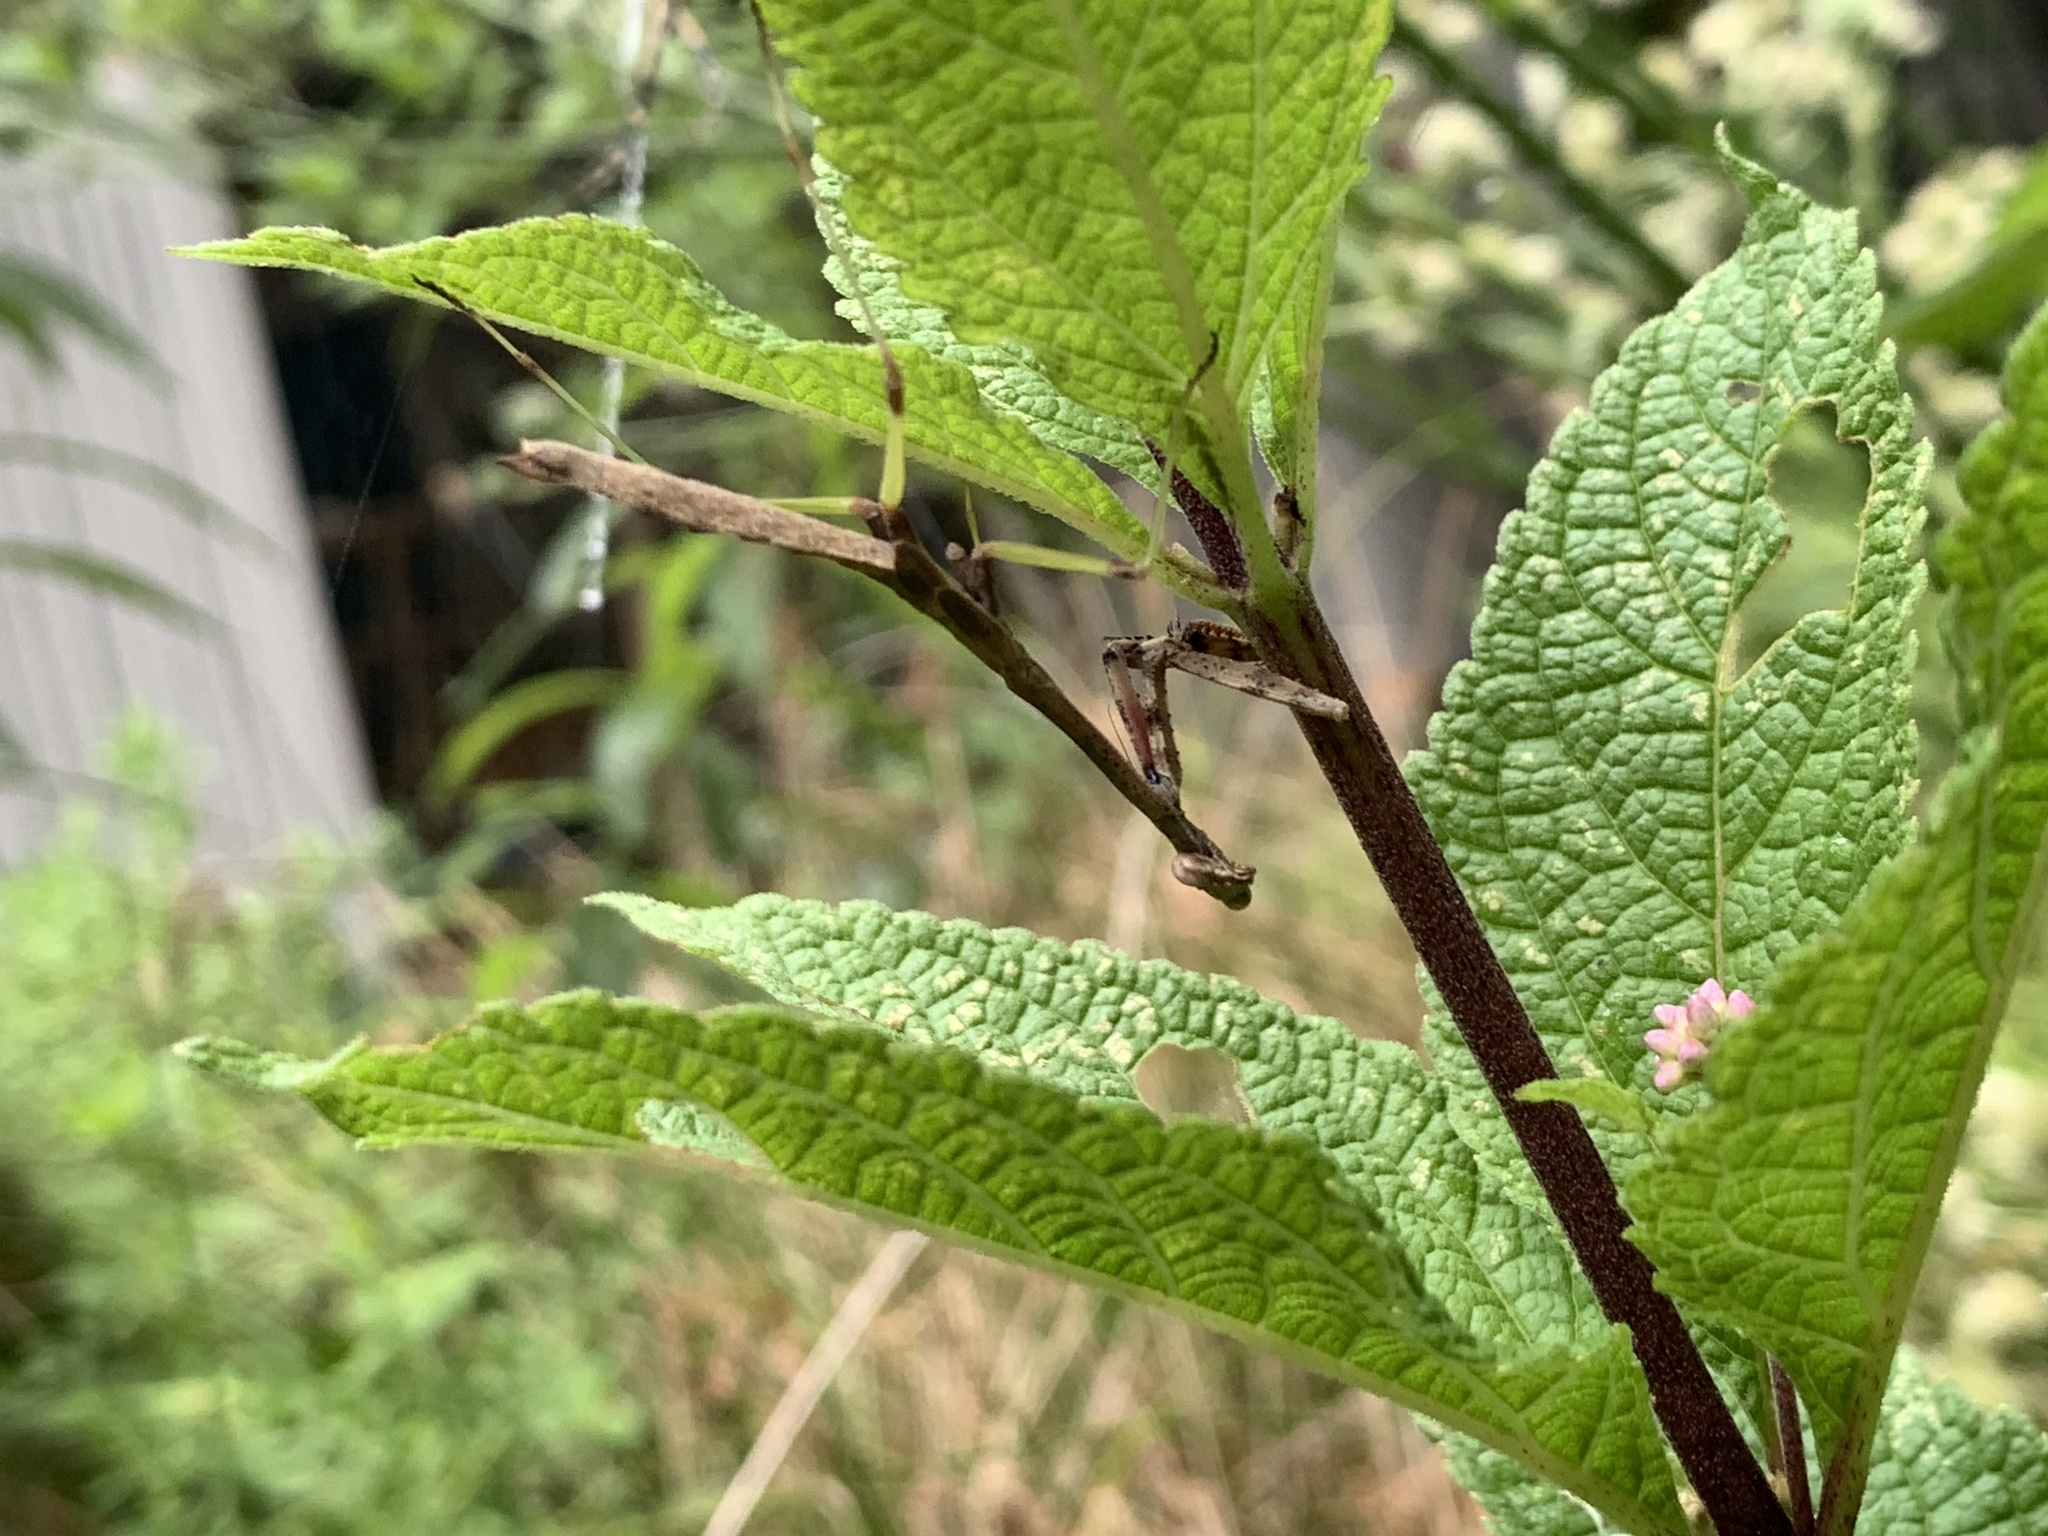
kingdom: Animalia
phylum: Arthropoda
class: Insecta
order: Mantodea
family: Mantidae
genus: Stagmomantis
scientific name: Stagmomantis carolina
